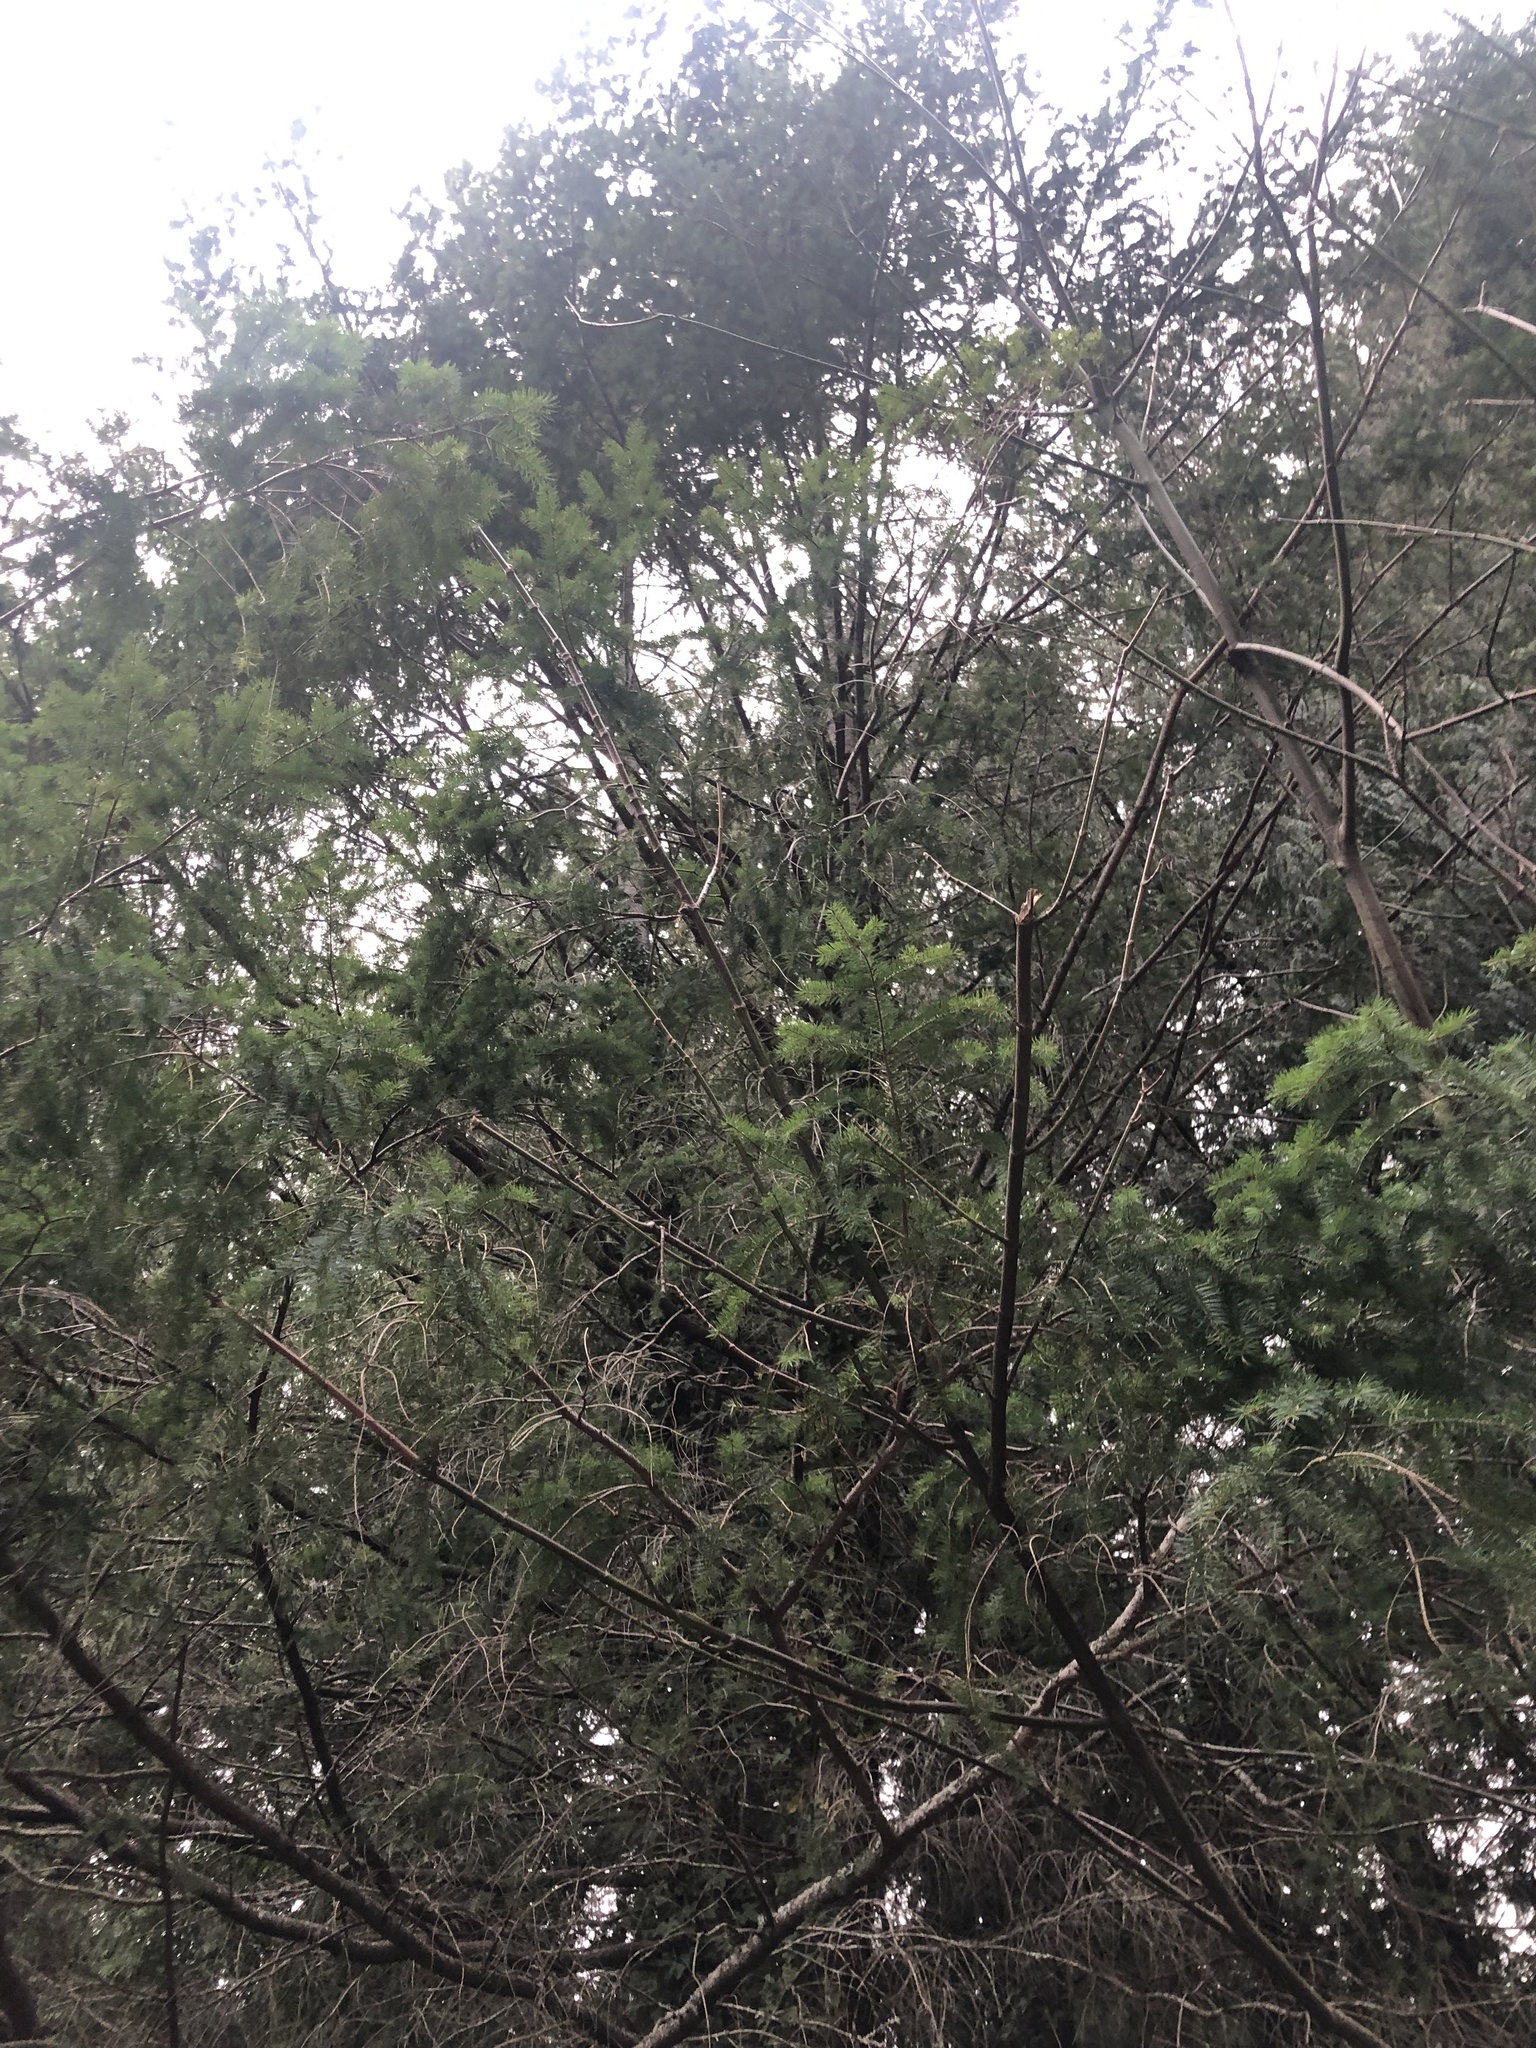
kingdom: Plantae
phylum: Tracheophyta
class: Pinopsida
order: Pinales
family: Pinaceae
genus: Pseudotsuga
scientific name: Pseudotsuga menziesii
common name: Douglas fir
